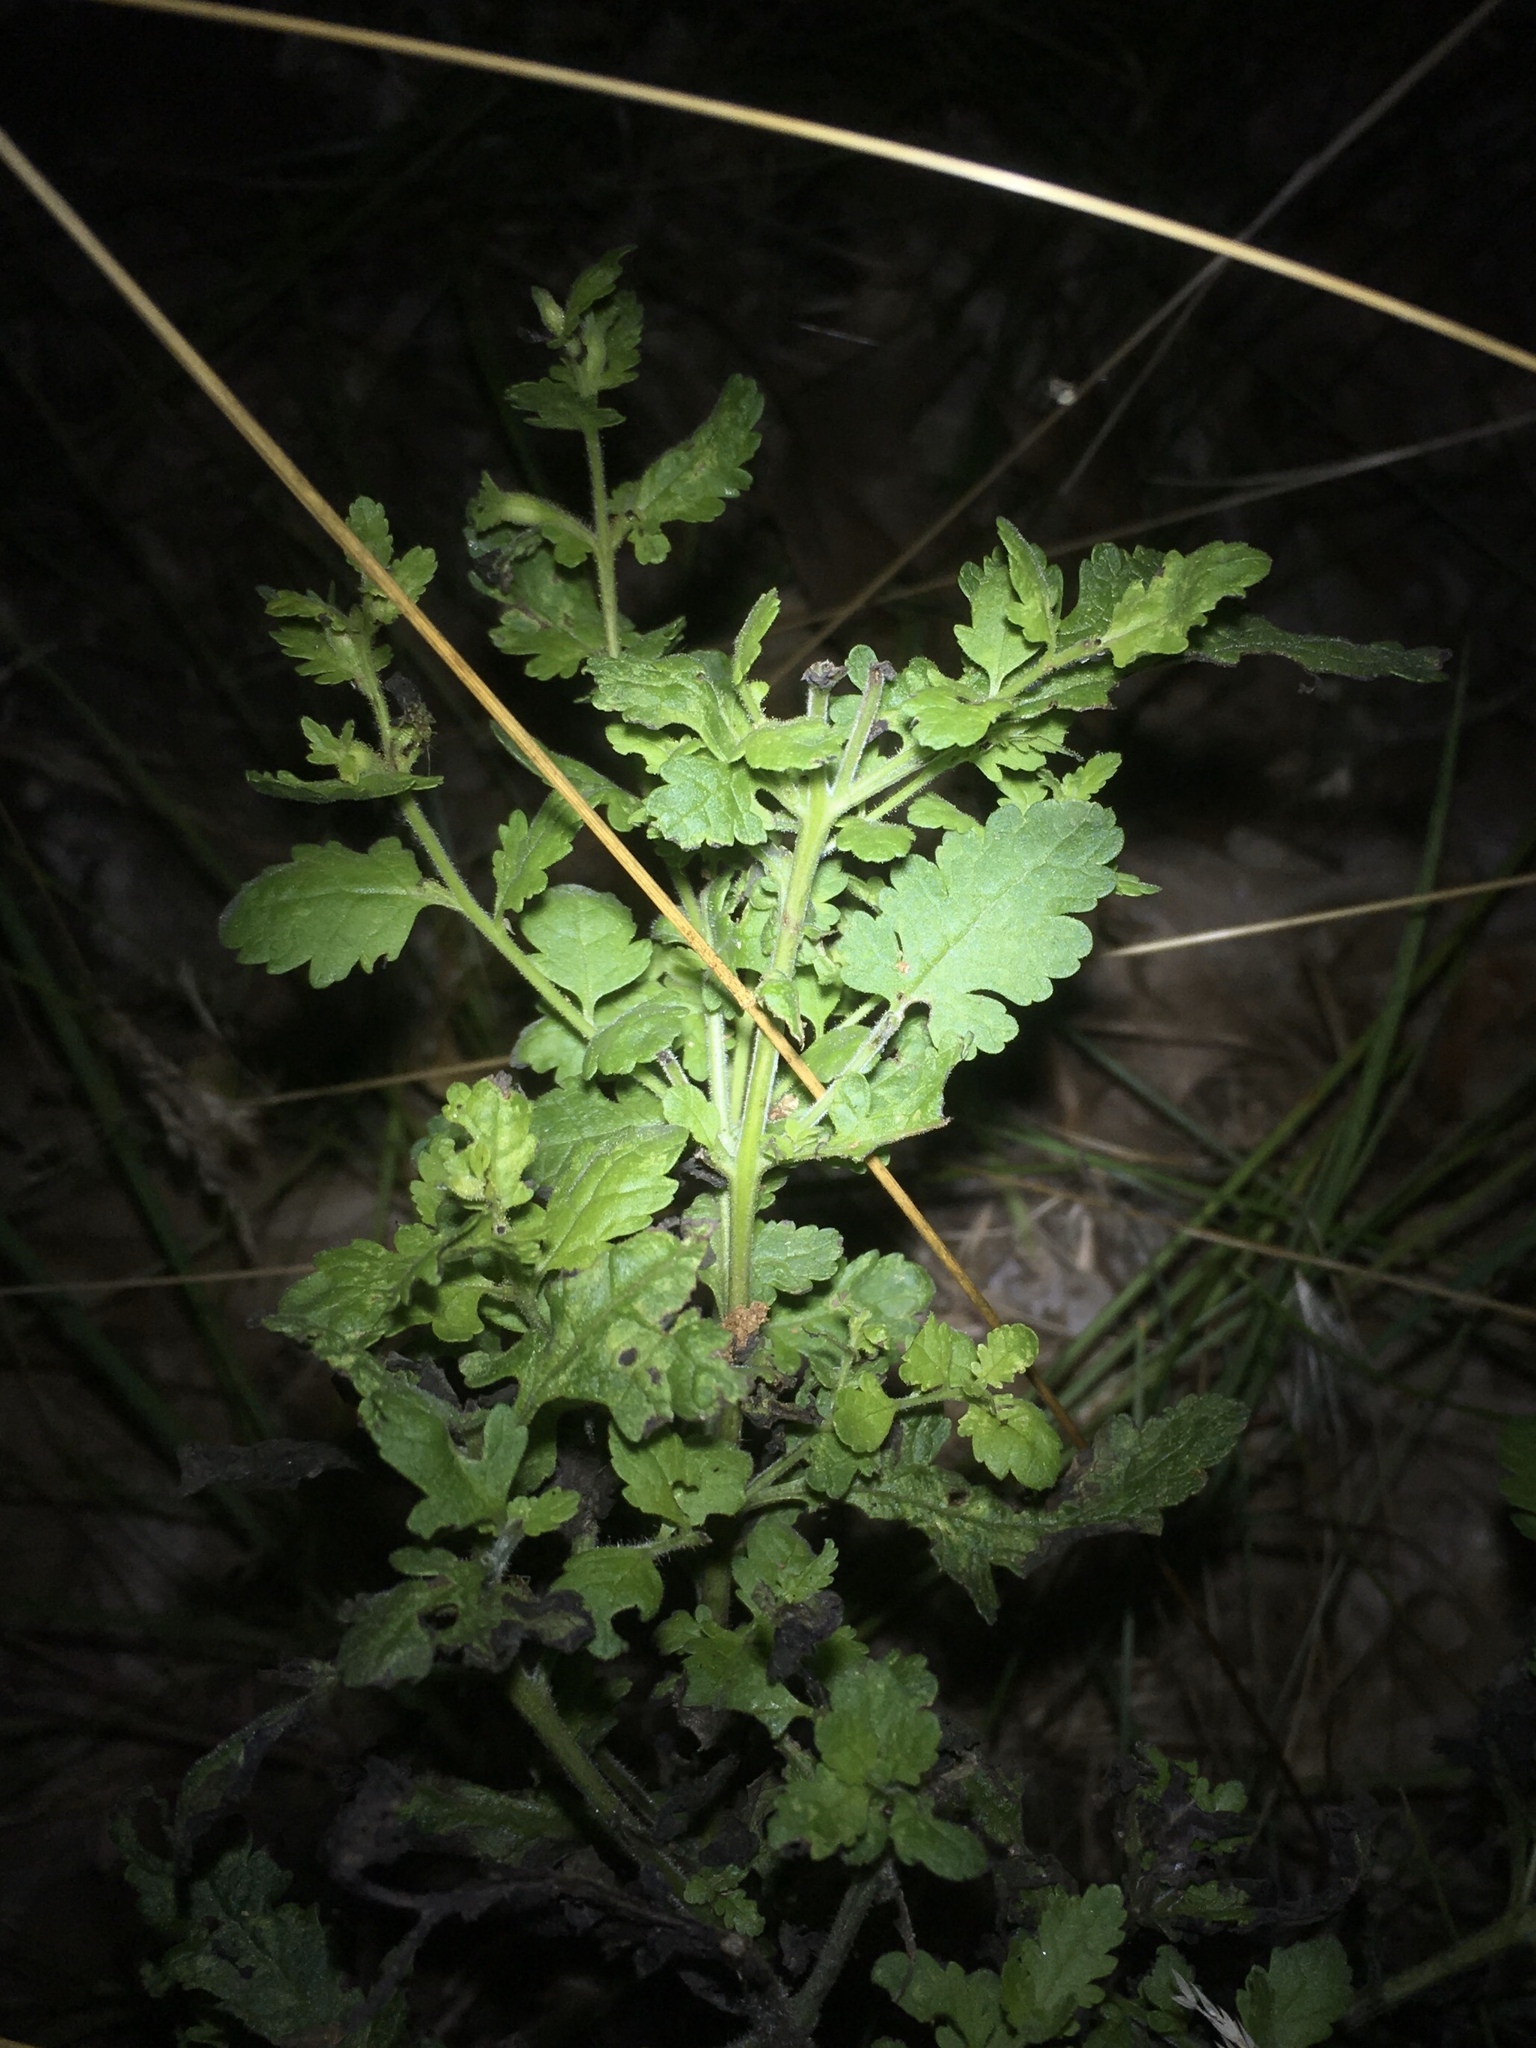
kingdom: Plantae
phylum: Tracheophyta
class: Magnoliopsida
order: Lamiales
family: Orobanchaceae
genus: Aureolaria
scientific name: Aureolaria pedicularia
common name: Annual false foxglove
